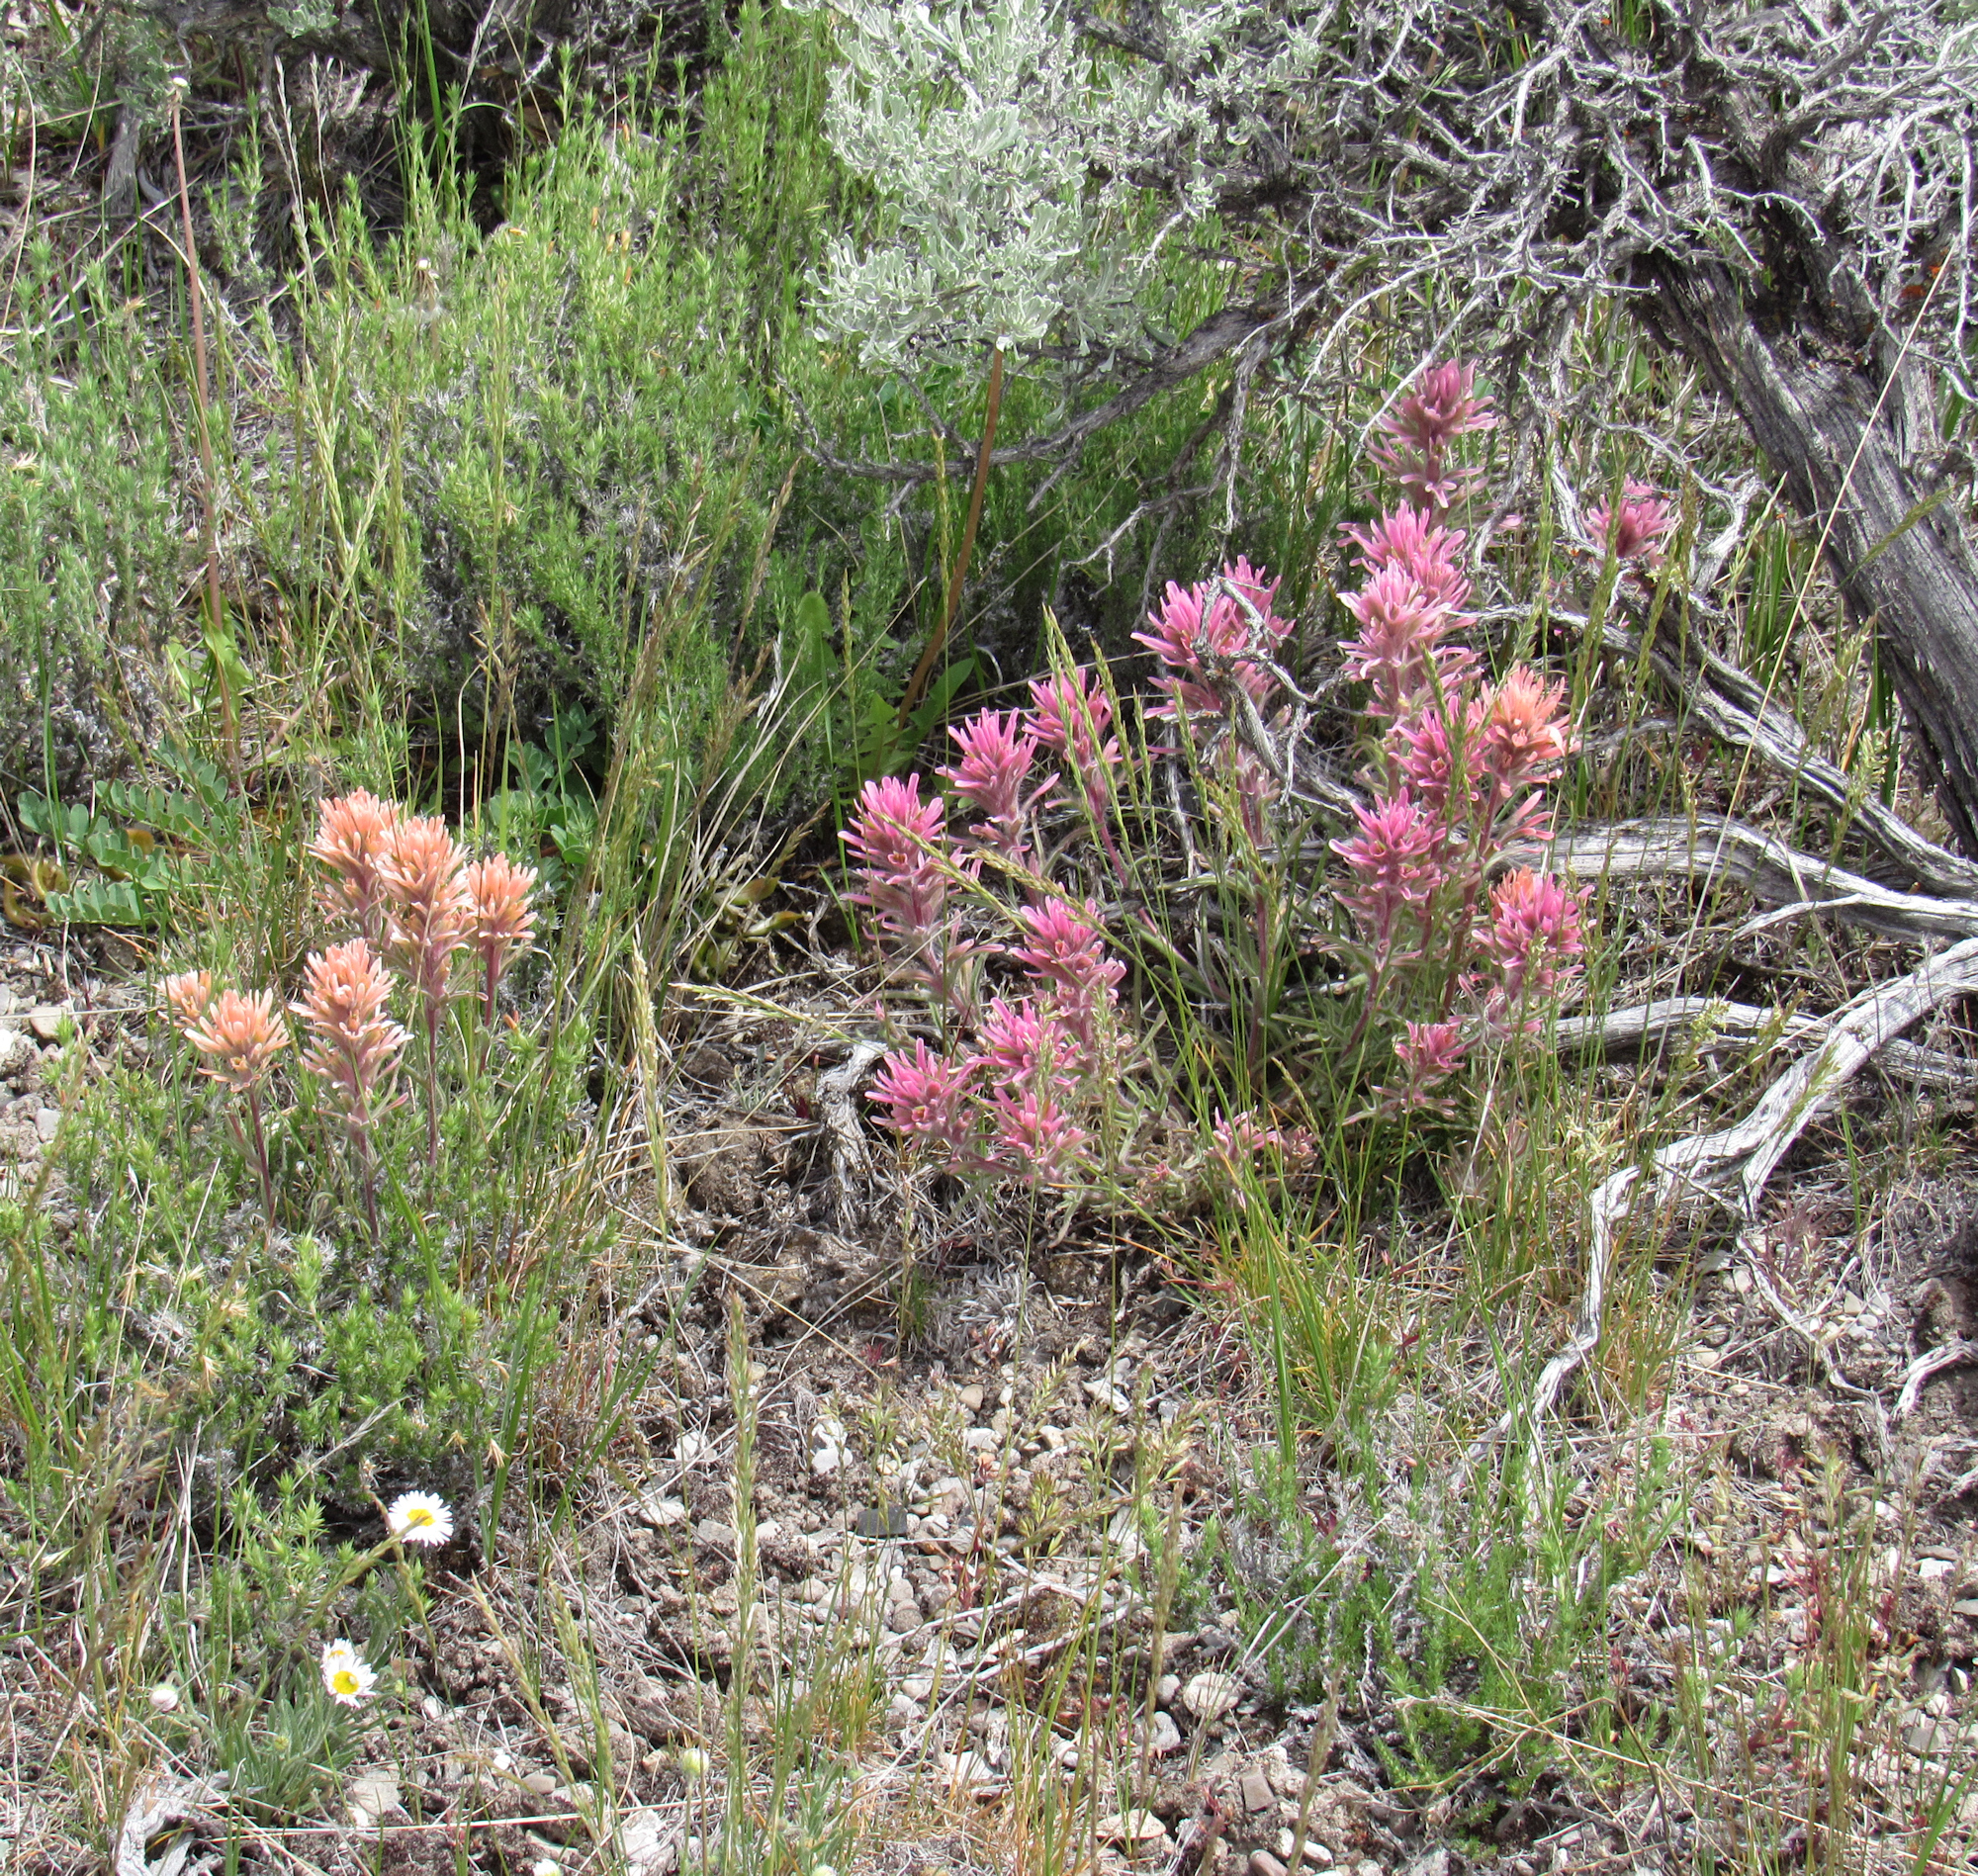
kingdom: Plantae
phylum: Tracheophyta
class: Magnoliopsida
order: Lamiales
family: Orobanchaceae
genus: Castilleja
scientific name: Castilleja angustifolia
